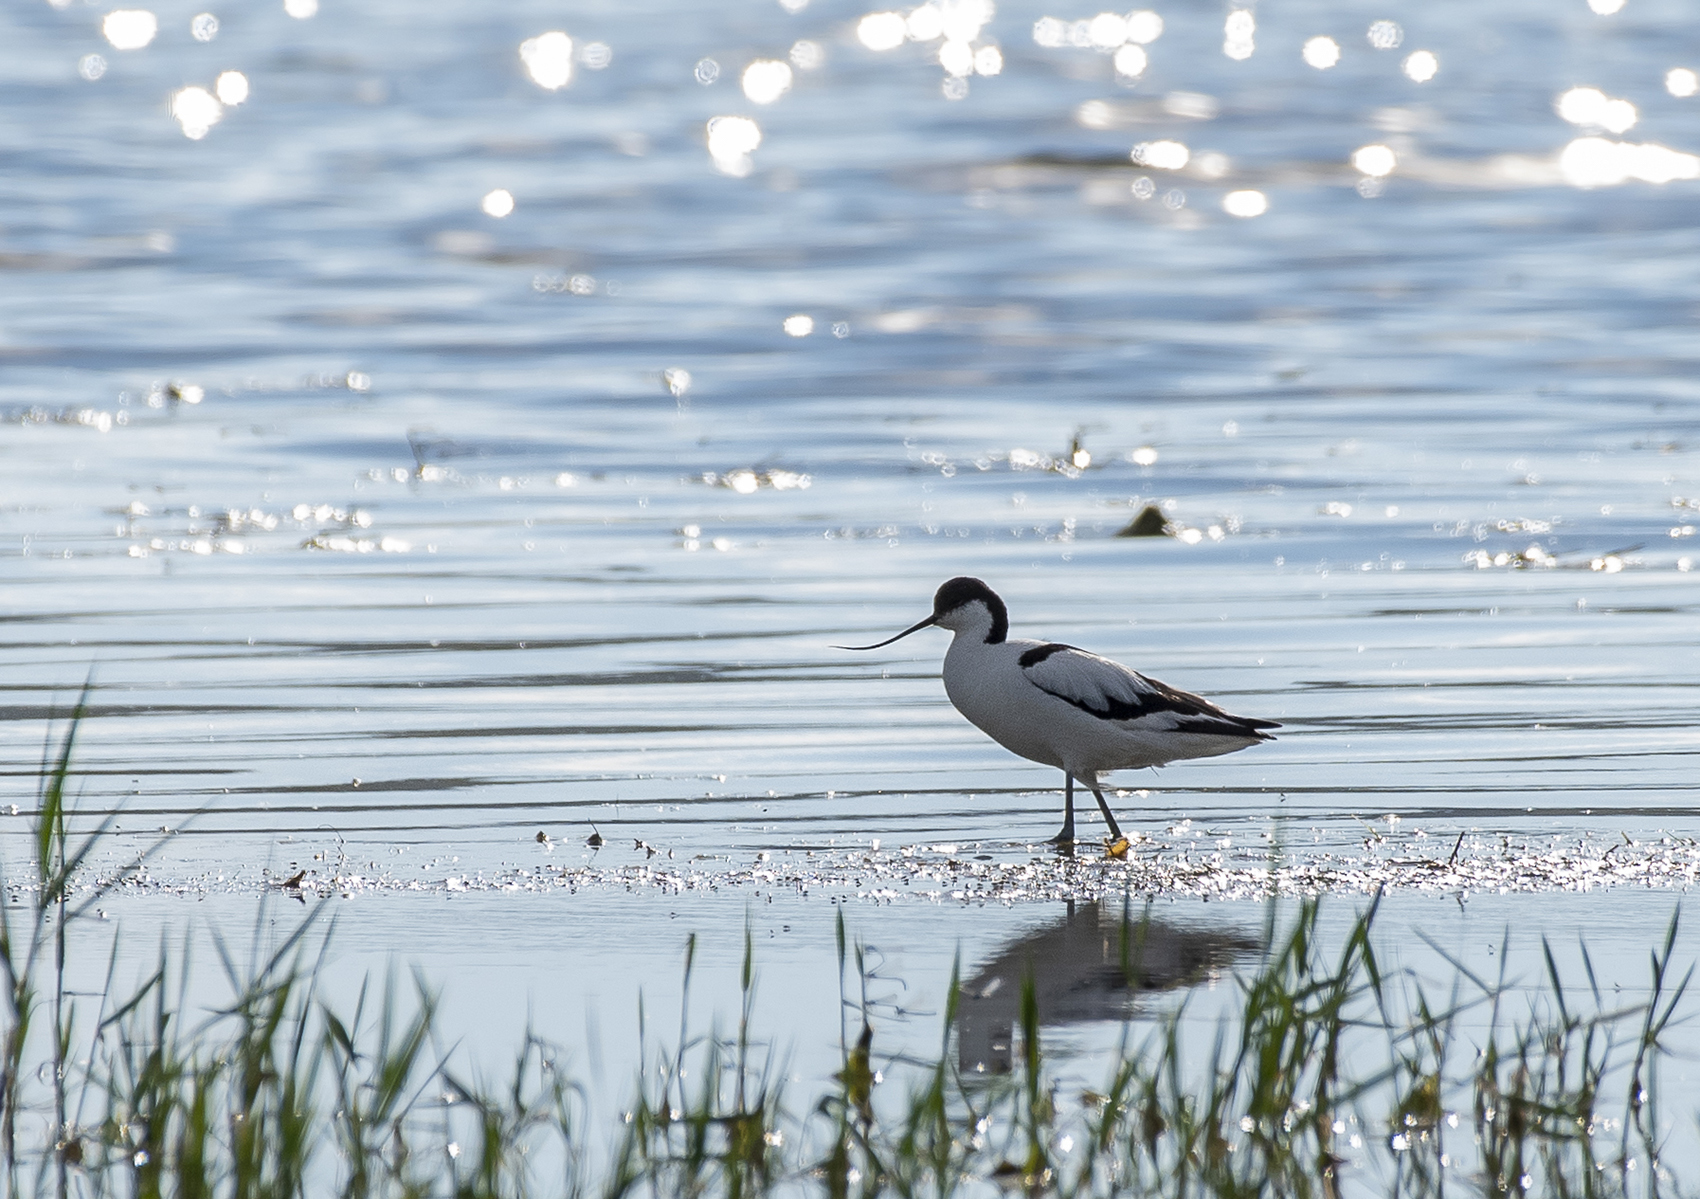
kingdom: Animalia
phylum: Chordata
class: Aves
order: Charadriiformes
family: Recurvirostridae
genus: Recurvirostra
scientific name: Recurvirostra avosetta
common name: Pied avocet
